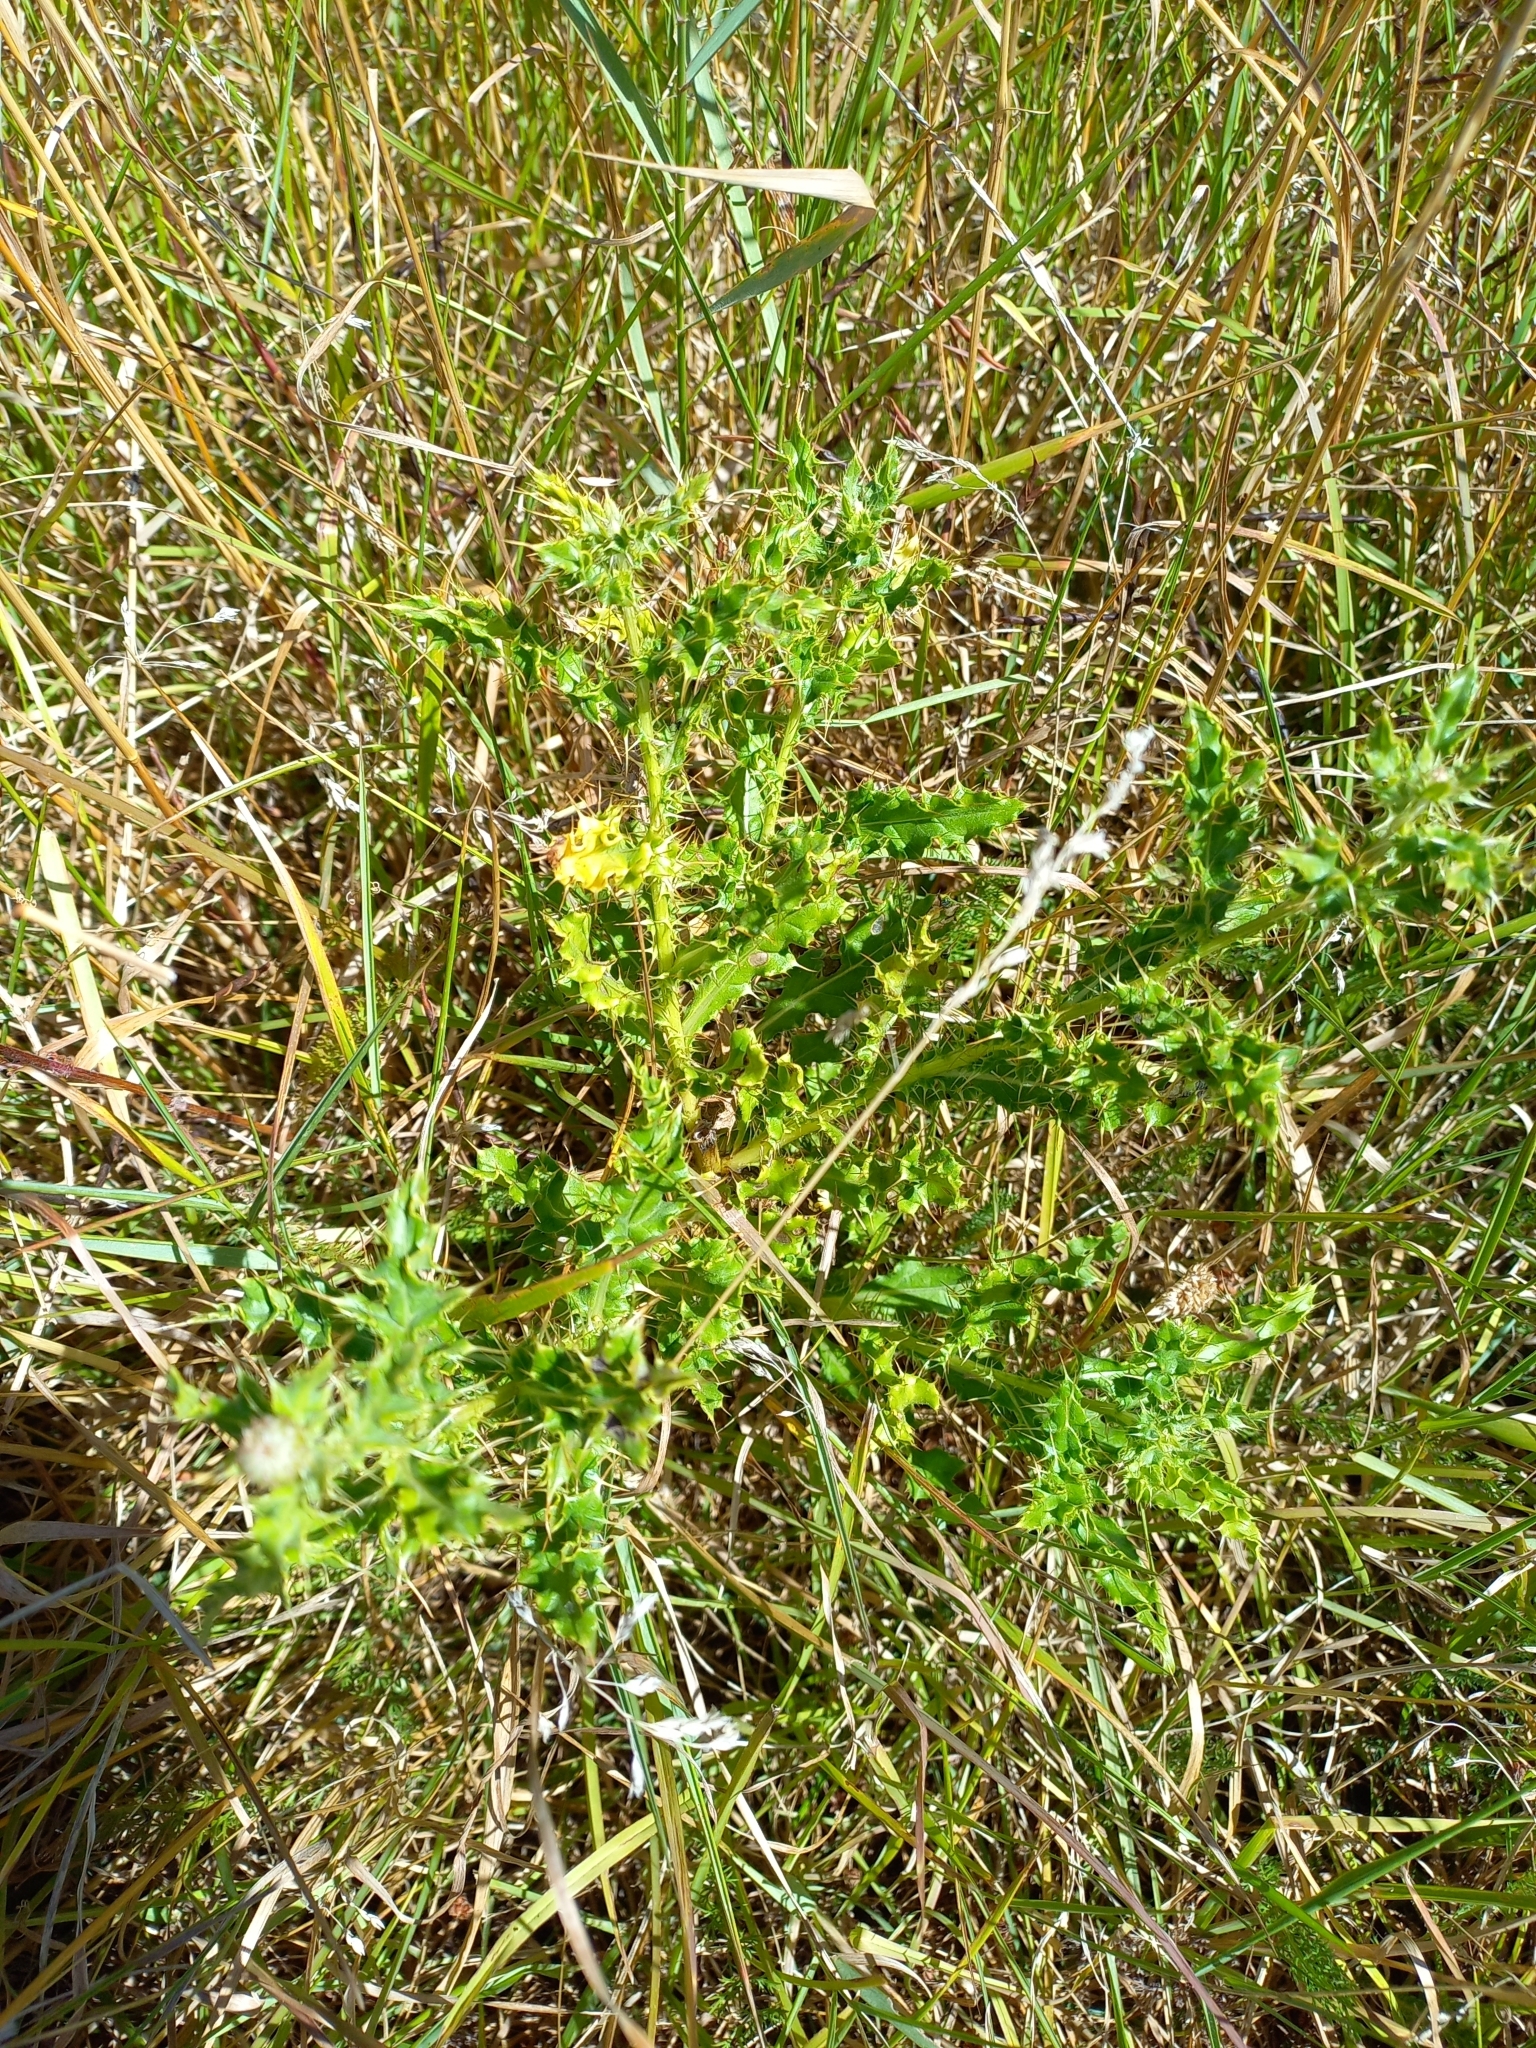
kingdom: Plantae
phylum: Tracheophyta
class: Magnoliopsida
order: Asterales
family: Asteraceae
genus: Cirsium
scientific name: Cirsium arvense
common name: Creeping thistle
